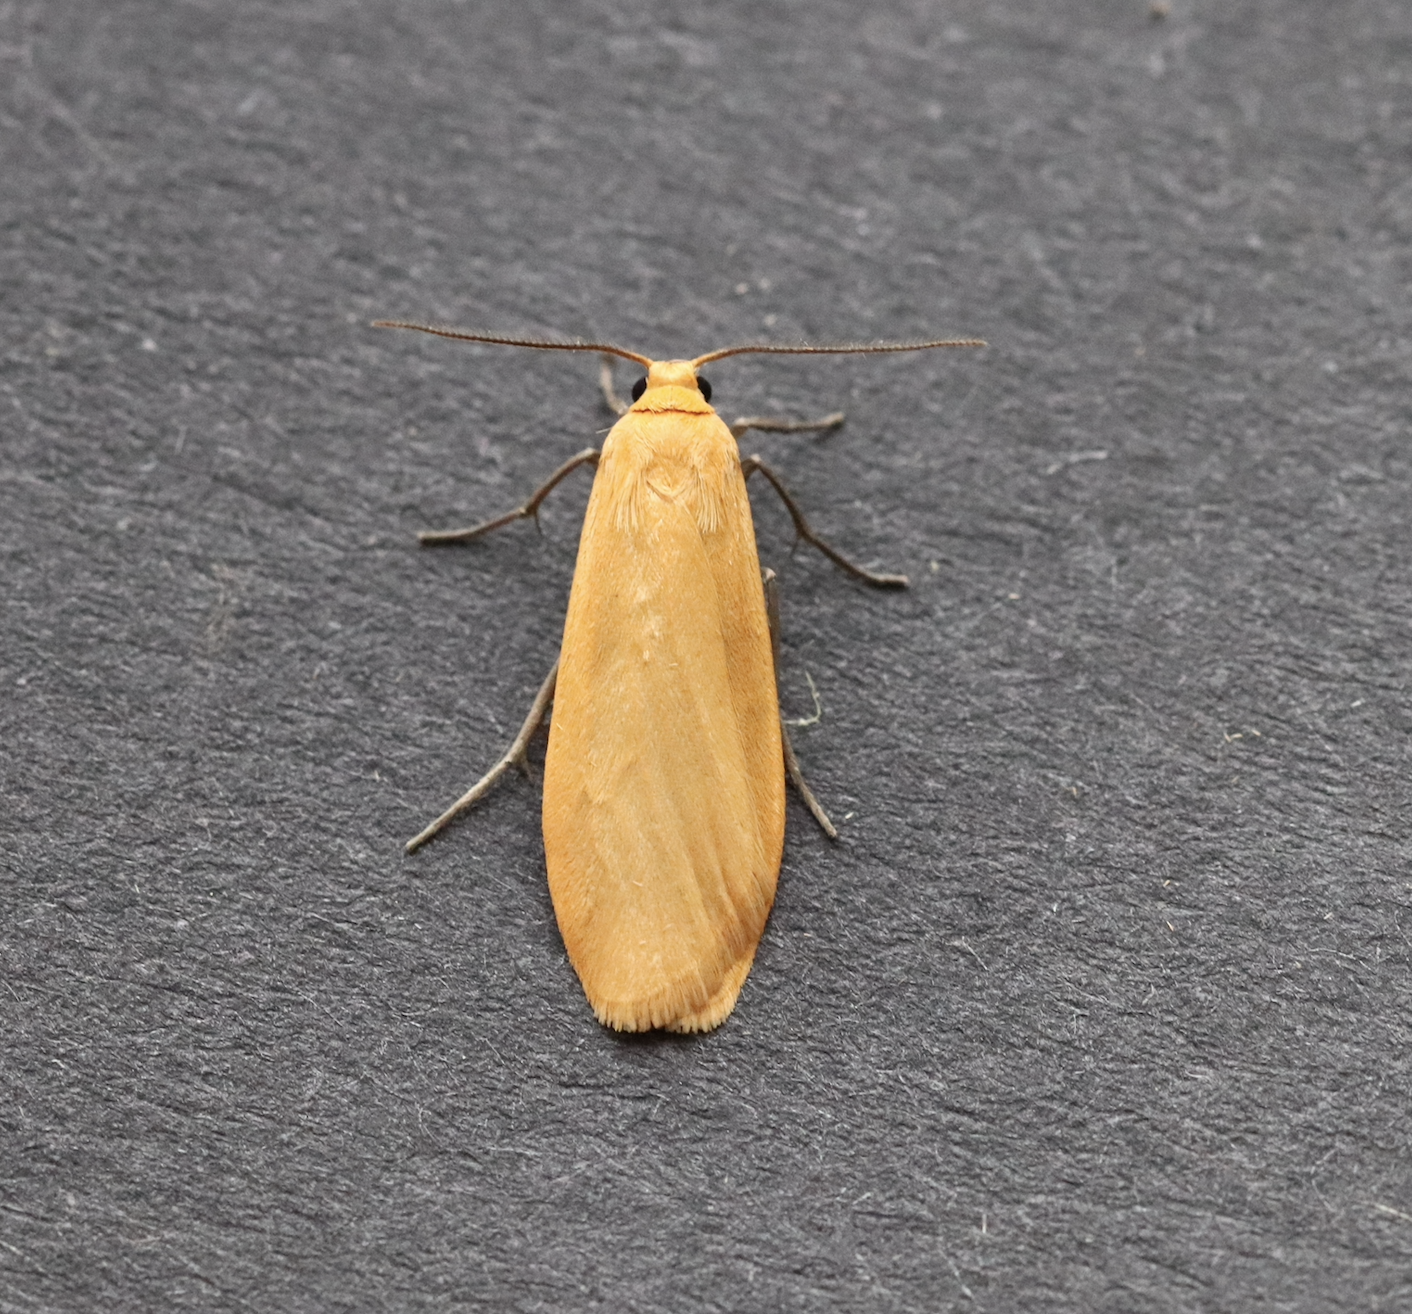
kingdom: Animalia
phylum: Arthropoda
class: Insecta
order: Lepidoptera
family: Erebidae
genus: Wittia
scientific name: Wittia sororcula
